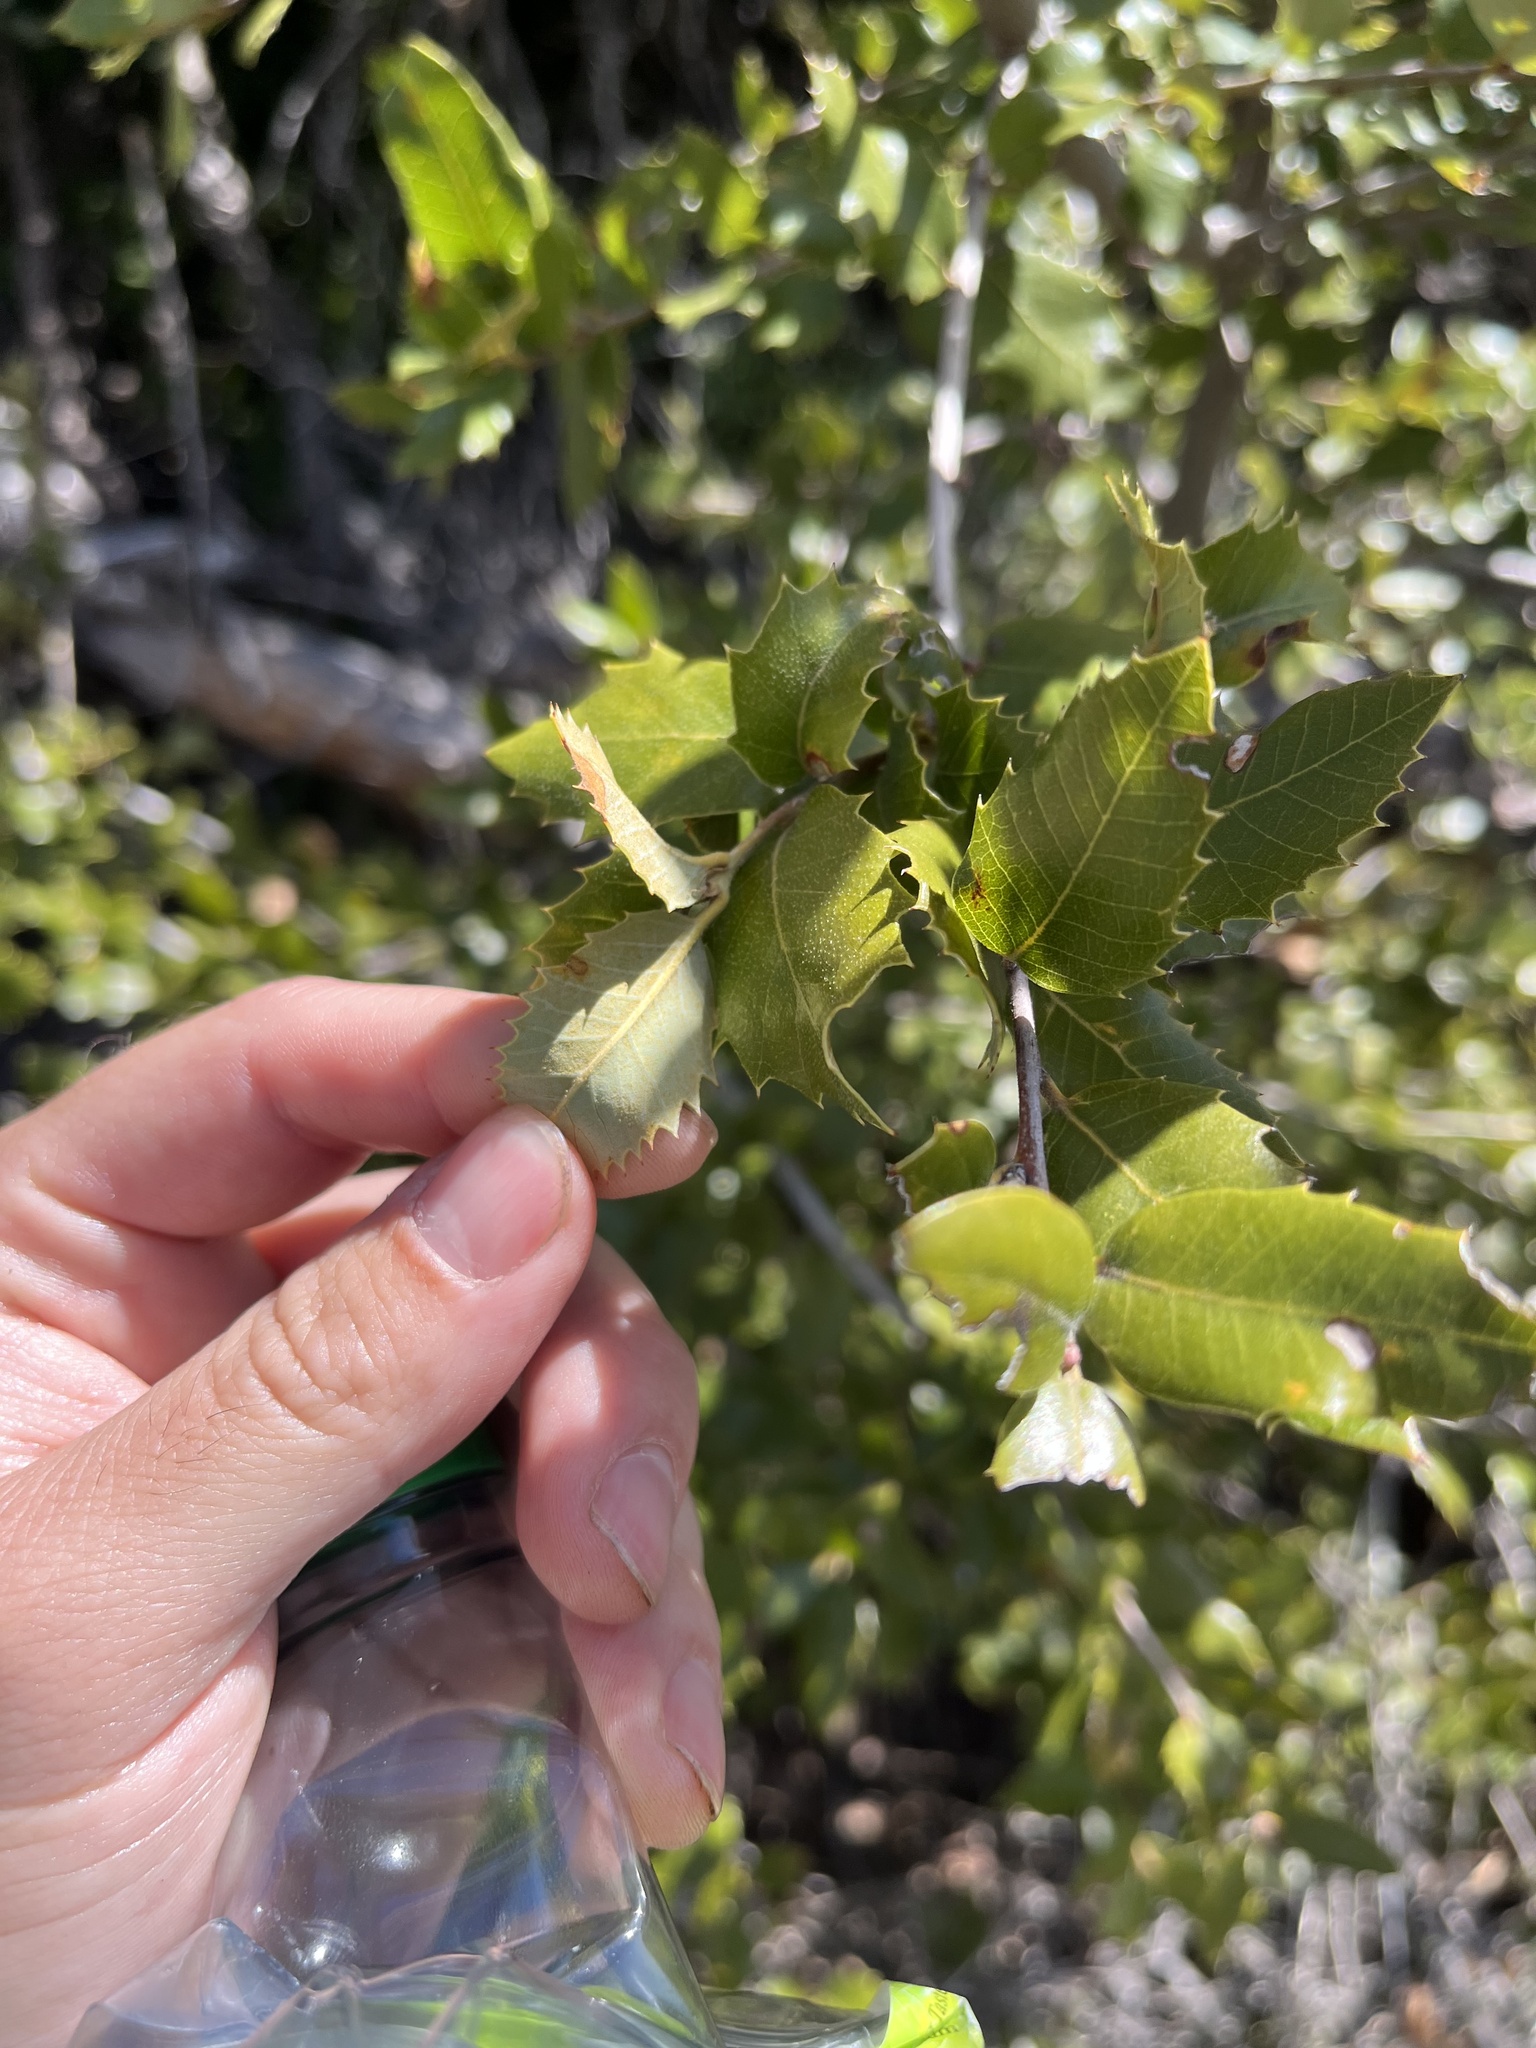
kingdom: Plantae
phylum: Tracheophyta
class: Magnoliopsida
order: Fagales
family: Fagaceae
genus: Quercus
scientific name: Quercus chrysolepis
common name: Canyon live oak
